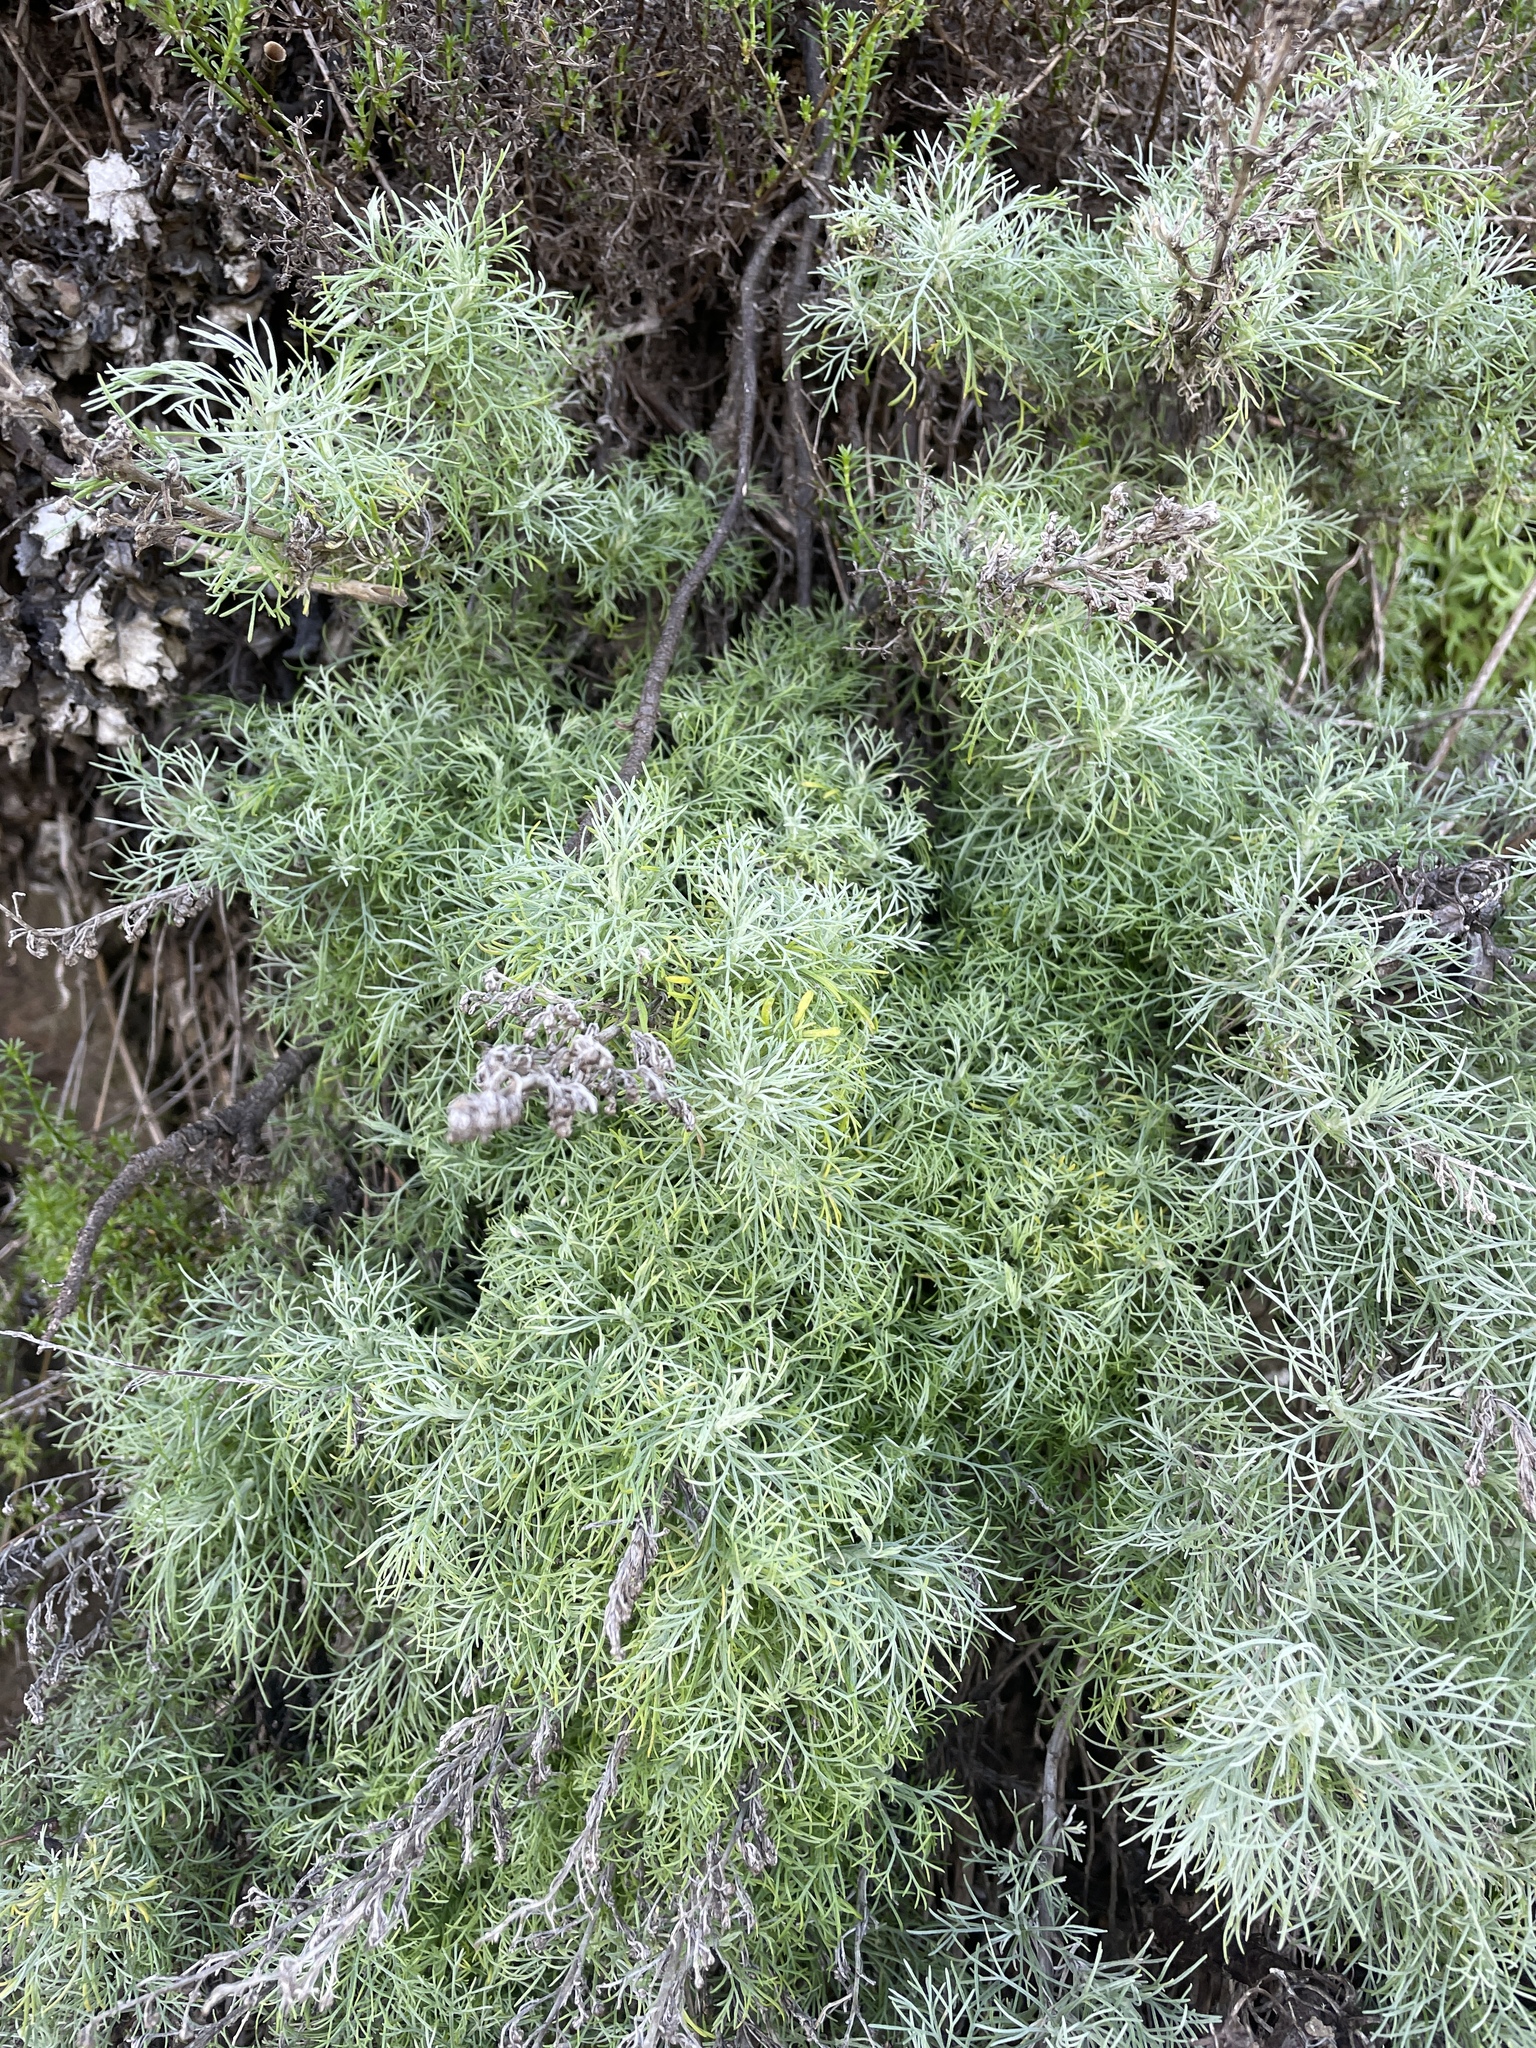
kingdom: Plantae
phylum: Tracheophyta
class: Magnoliopsida
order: Asterales
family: Asteraceae
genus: Artemisia
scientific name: Artemisia californica
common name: California sagebrush
